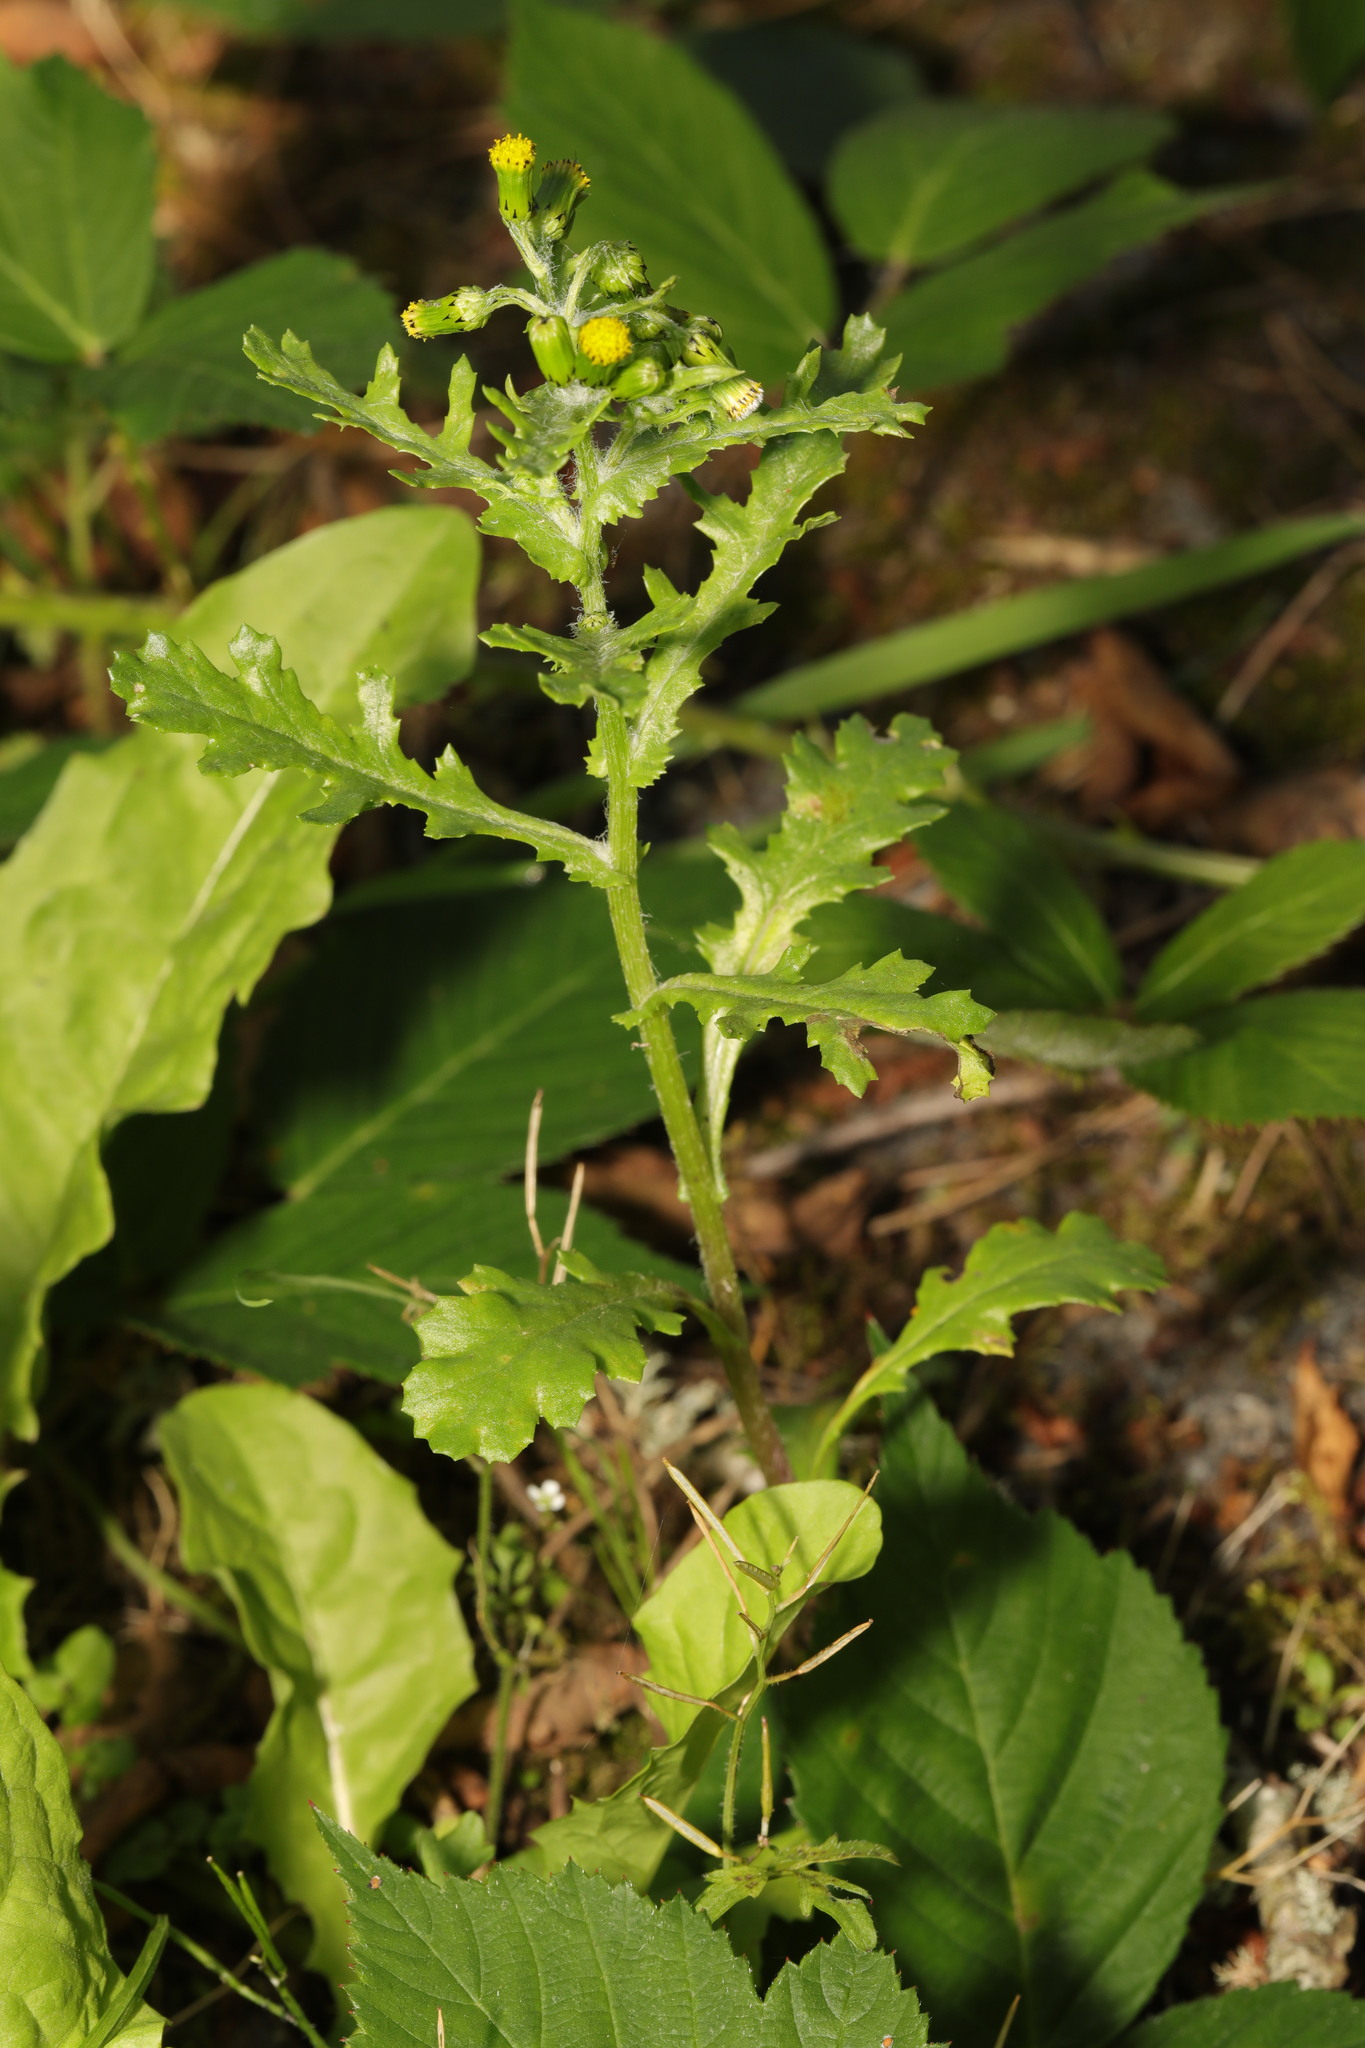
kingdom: Plantae
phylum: Tracheophyta
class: Magnoliopsida
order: Asterales
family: Asteraceae
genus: Senecio
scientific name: Senecio vulgaris
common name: Old-man-in-the-spring
